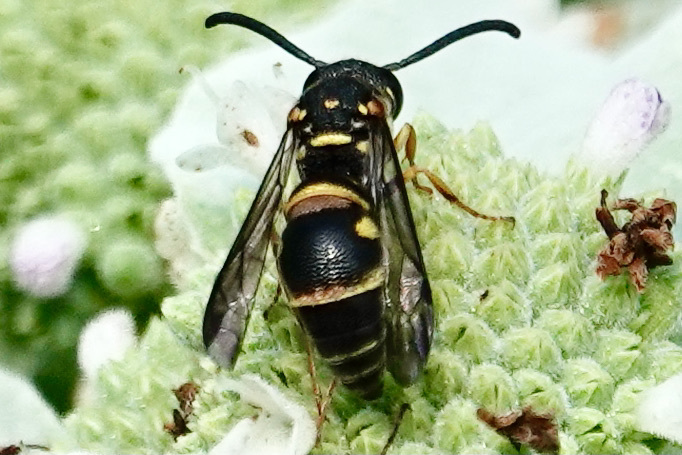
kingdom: Animalia
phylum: Arthropoda
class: Insecta
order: Hymenoptera
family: Eumenidae
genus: Parancistrocerus
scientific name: Parancistrocerus pedestris
